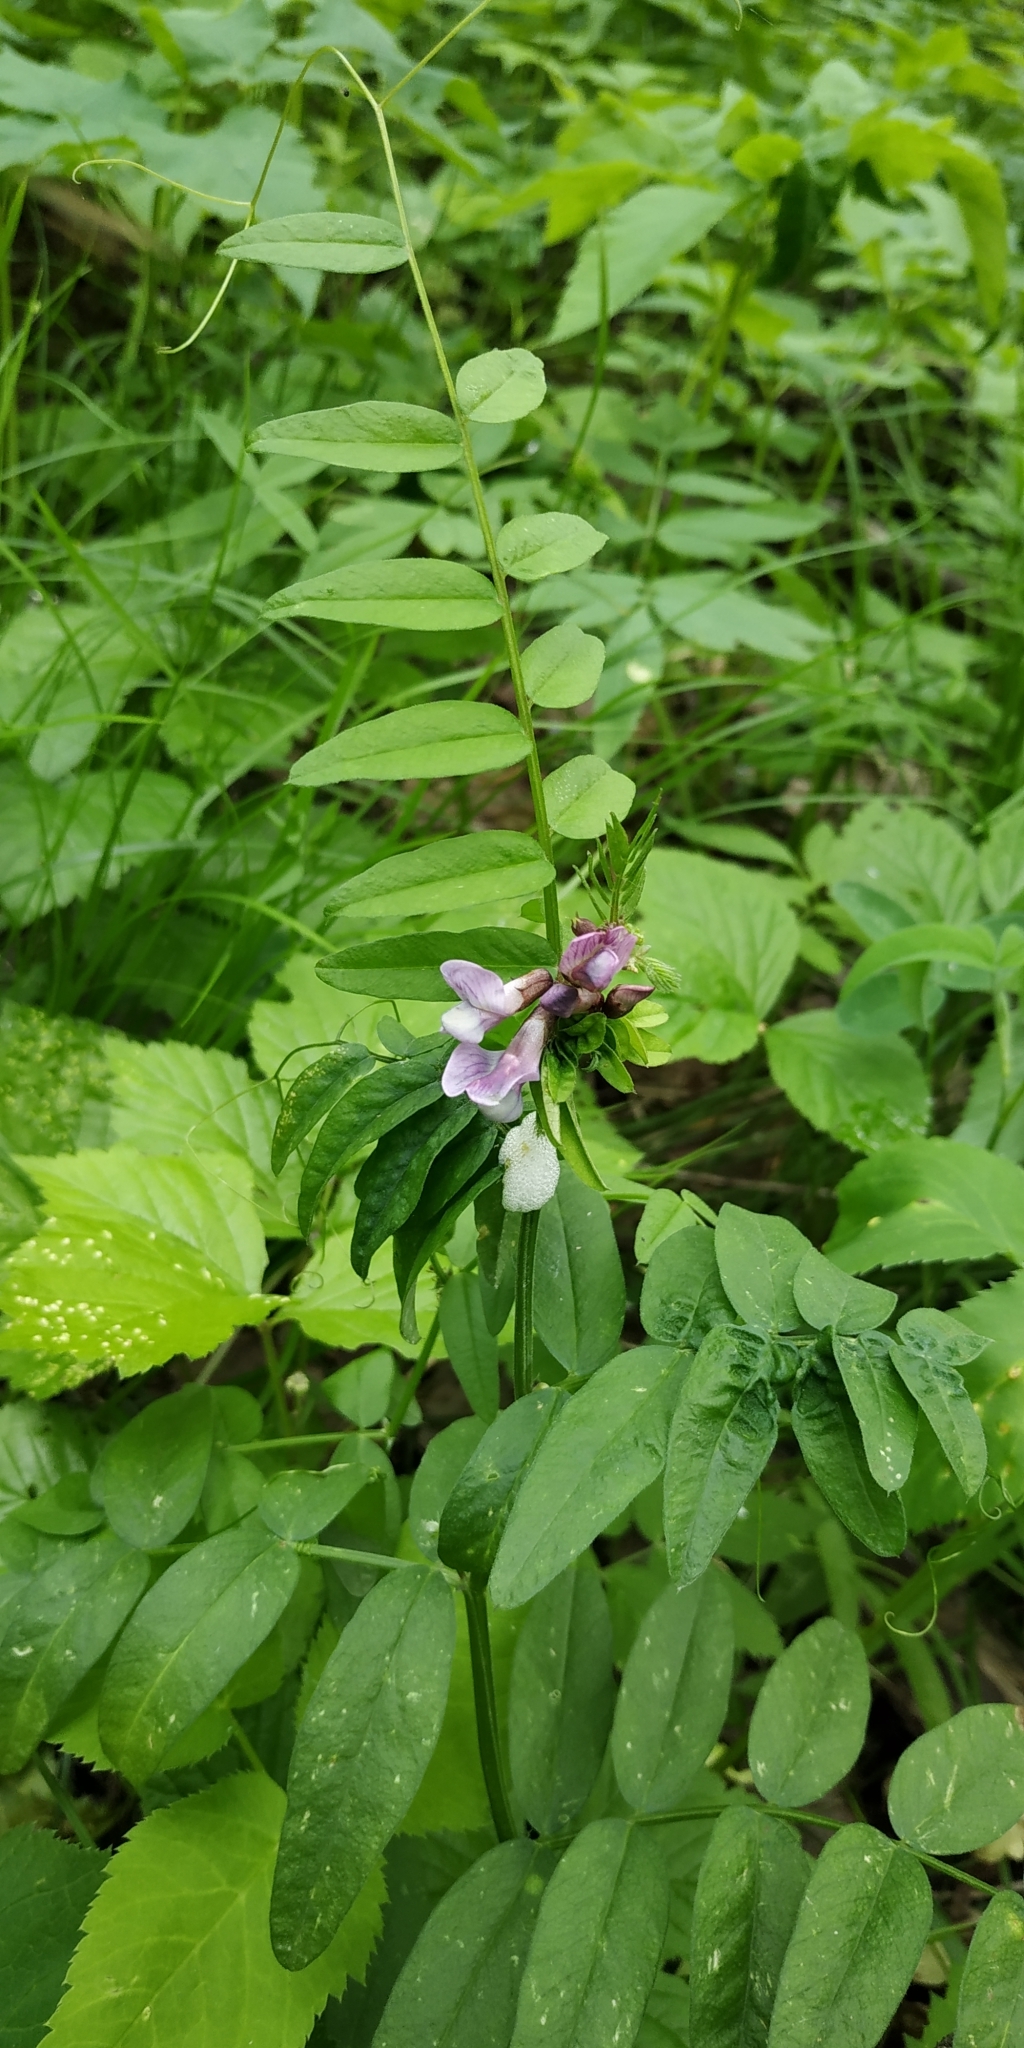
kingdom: Plantae
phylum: Tracheophyta
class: Magnoliopsida
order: Fabales
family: Fabaceae
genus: Vicia
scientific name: Vicia sepium
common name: Bush vetch
